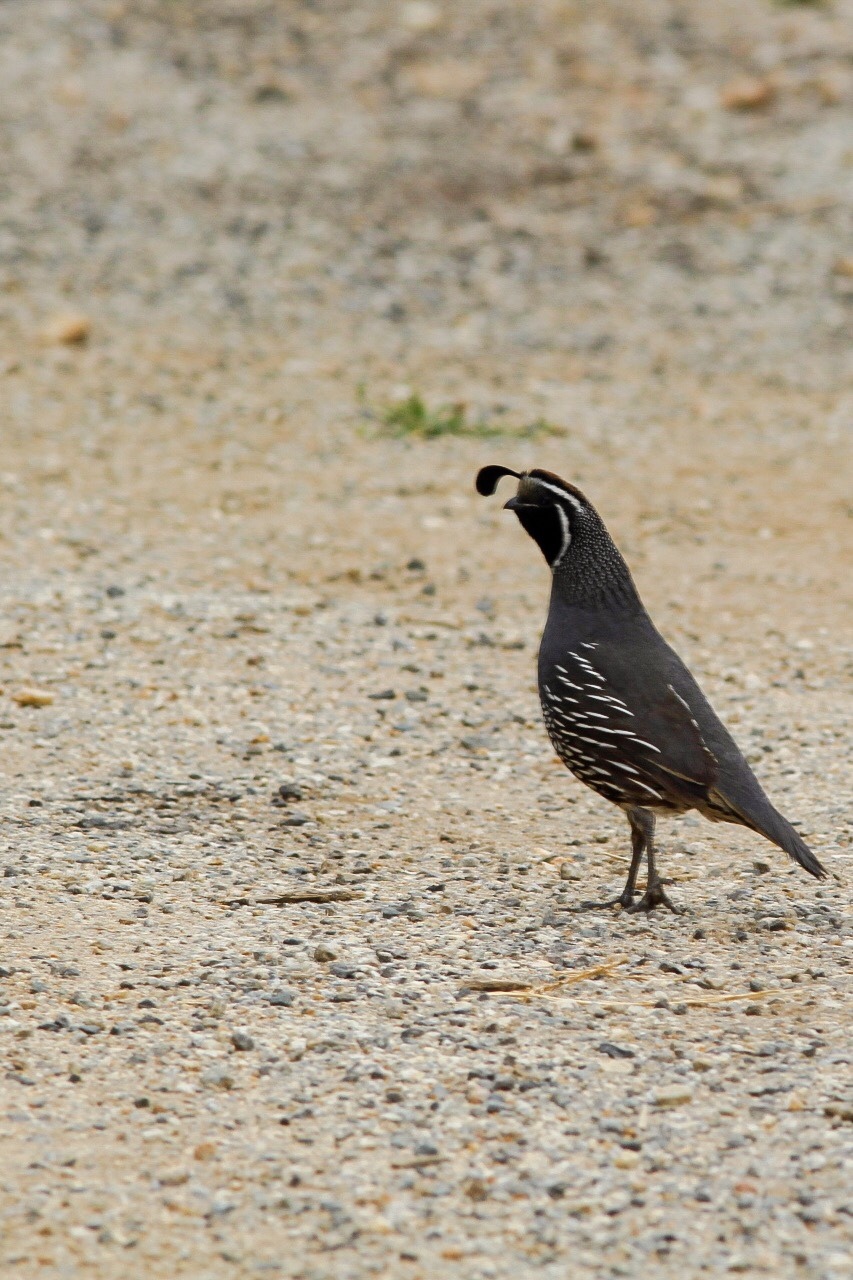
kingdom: Animalia
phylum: Chordata
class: Aves
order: Galliformes
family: Odontophoridae
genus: Callipepla
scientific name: Callipepla californica
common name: California quail
